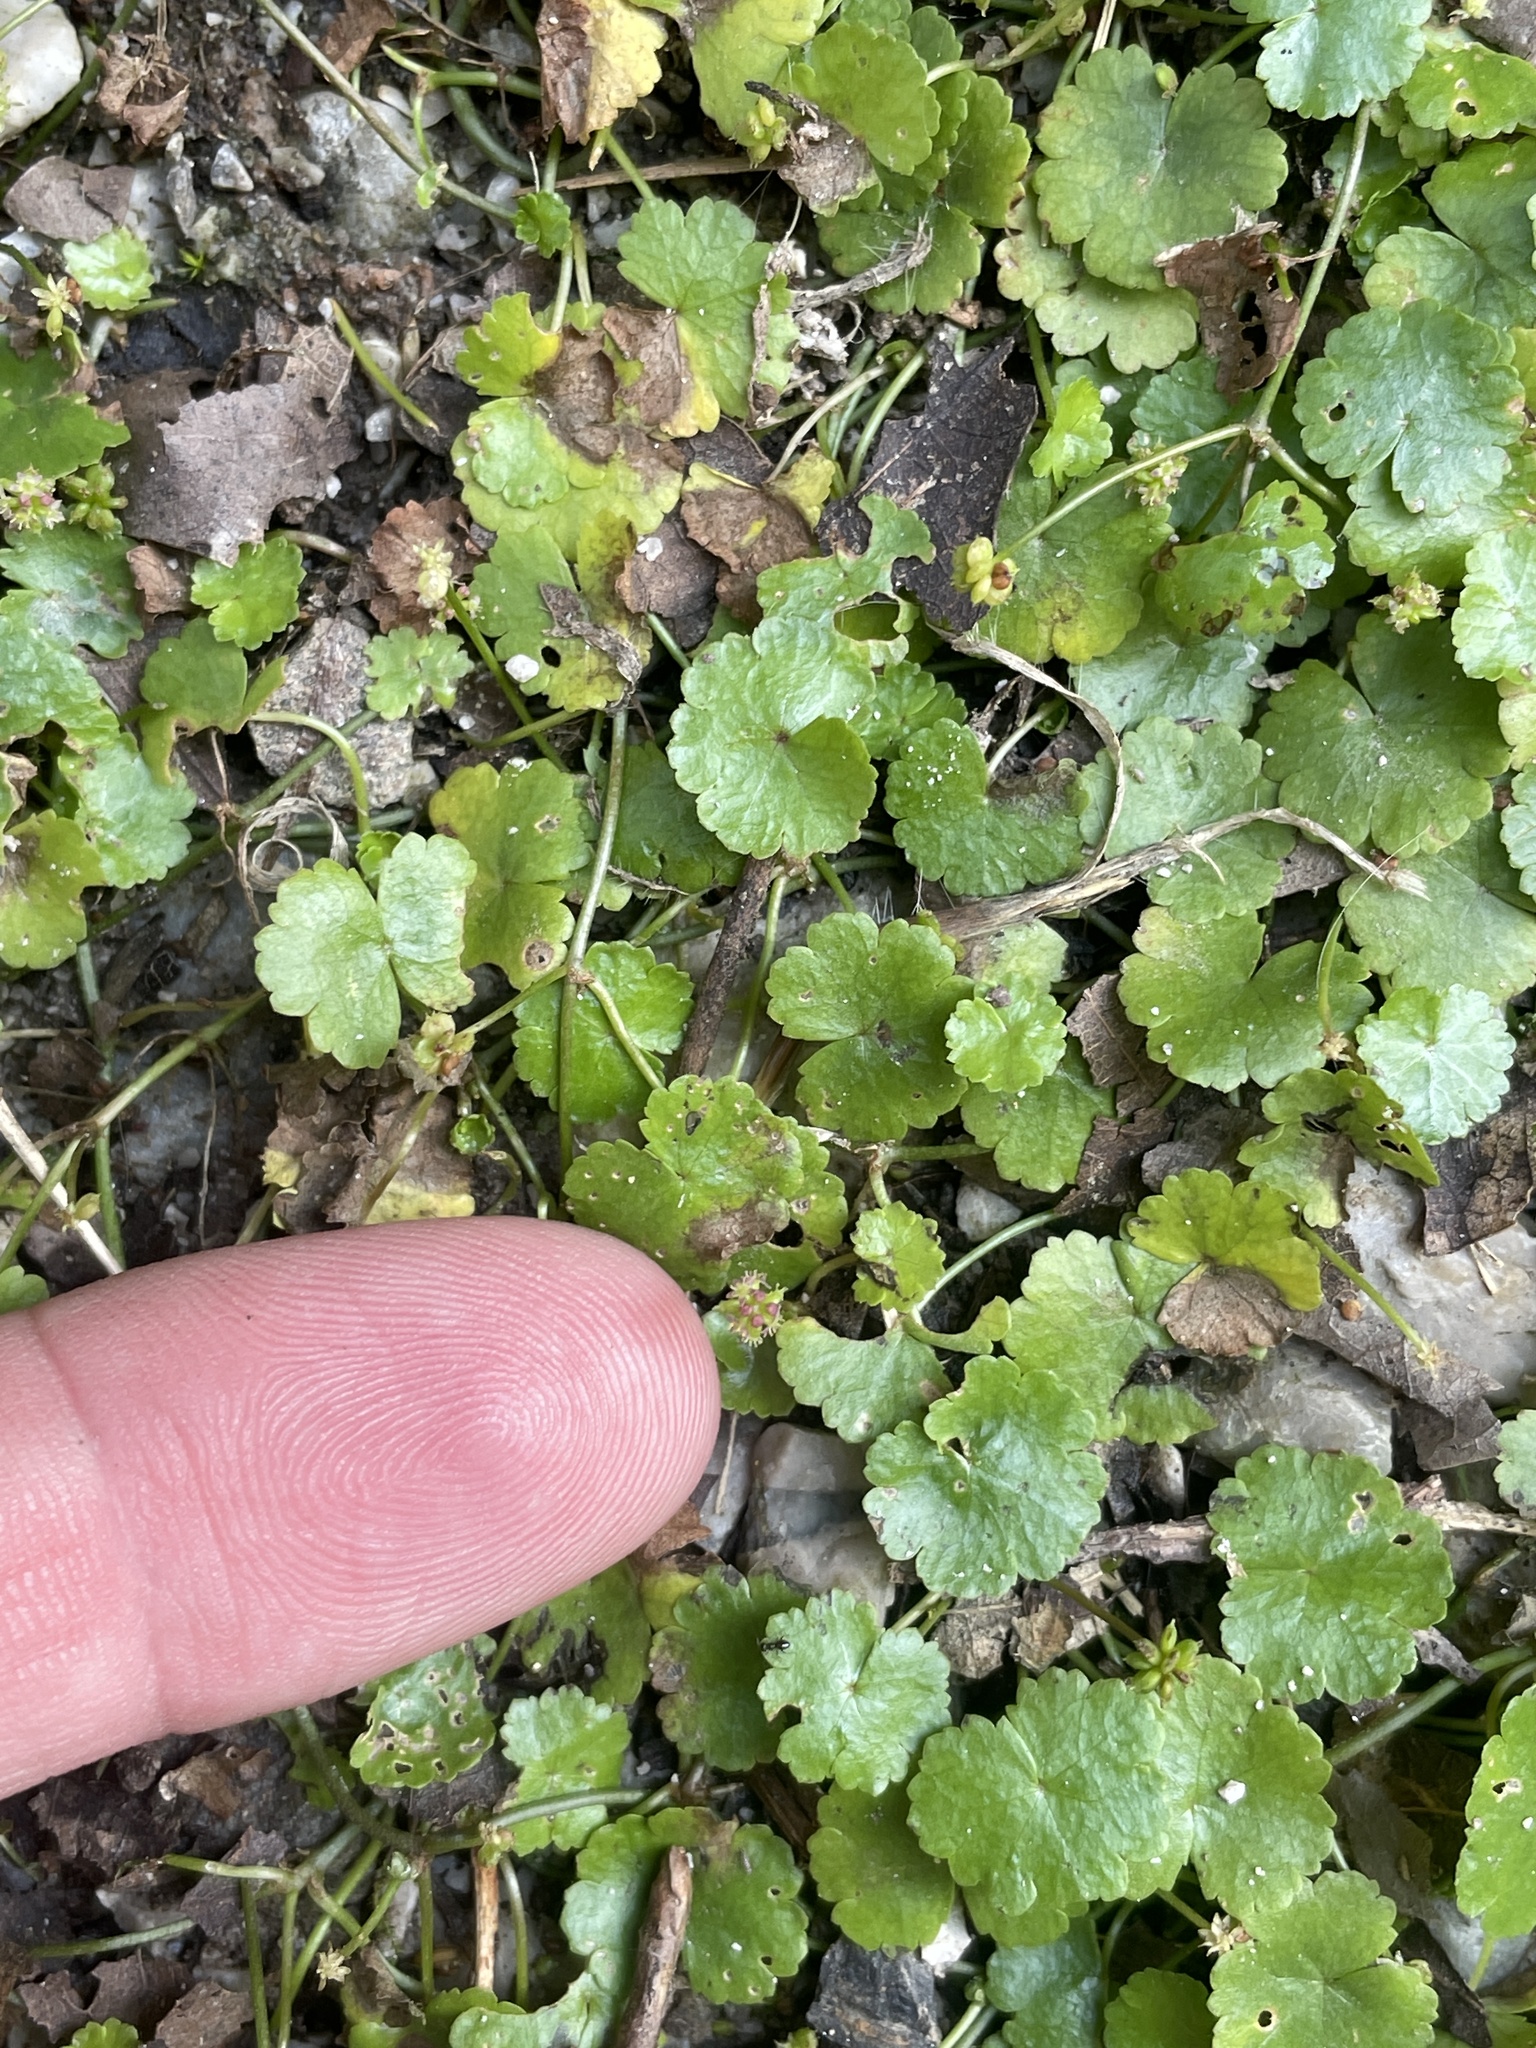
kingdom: Plantae
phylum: Tracheophyta
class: Magnoliopsida
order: Apiales
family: Araliaceae
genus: Hydrocotyle
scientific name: Hydrocotyle sibthorpioides
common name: Lawn marshpennywort
